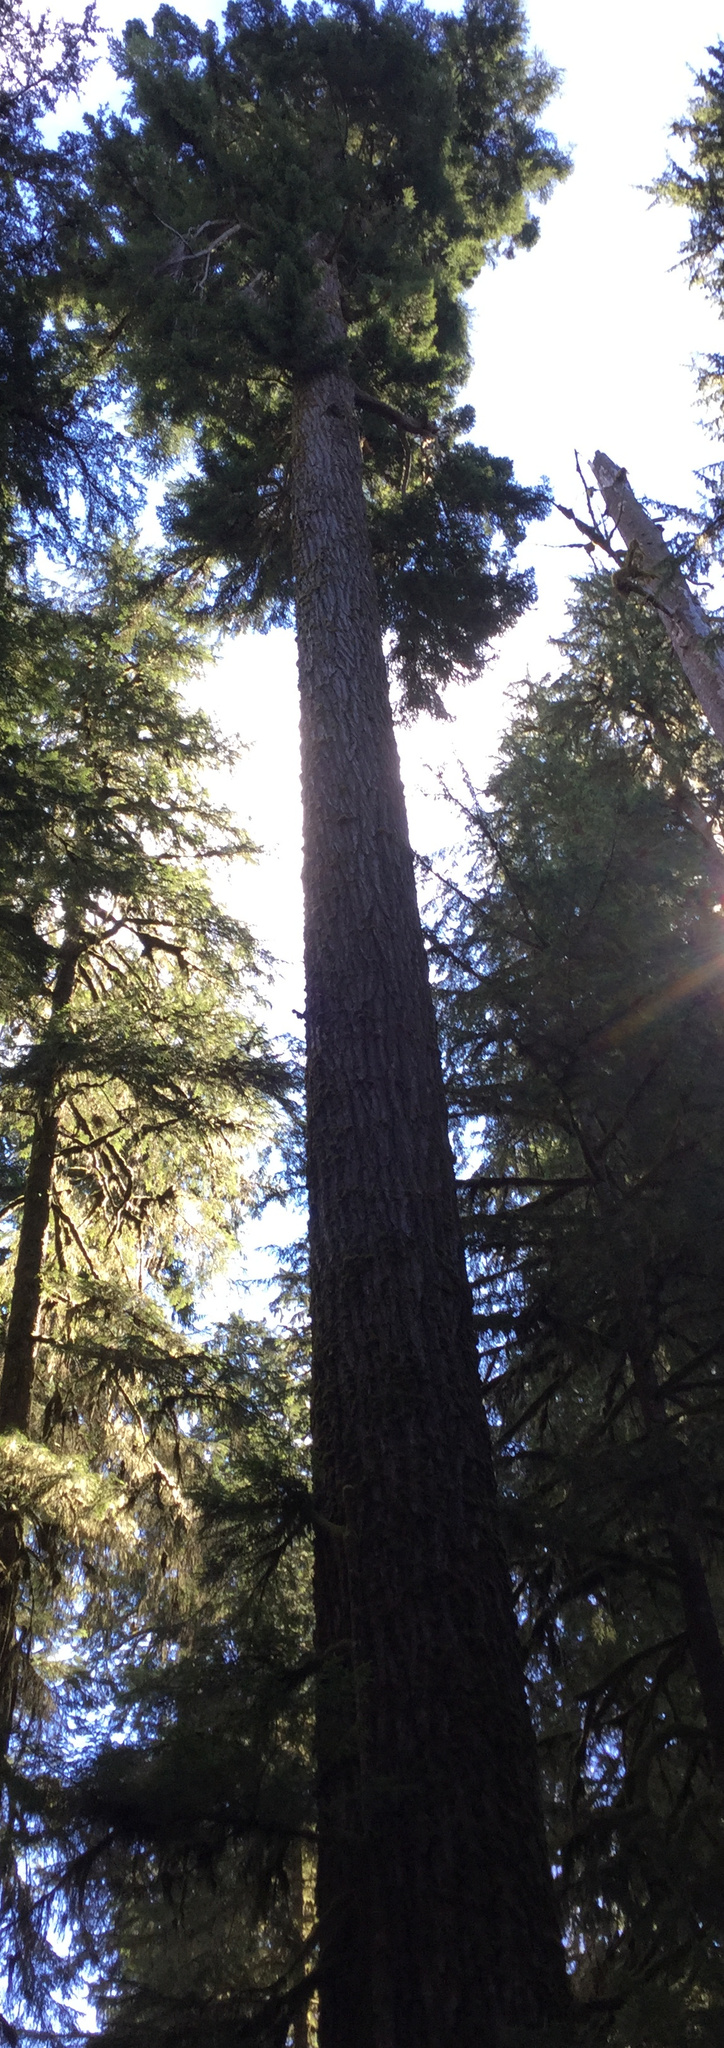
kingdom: Plantae
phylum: Tracheophyta
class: Pinopsida
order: Pinales
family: Pinaceae
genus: Pseudotsuga
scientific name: Pseudotsuga menziesii
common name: Douglas fir
